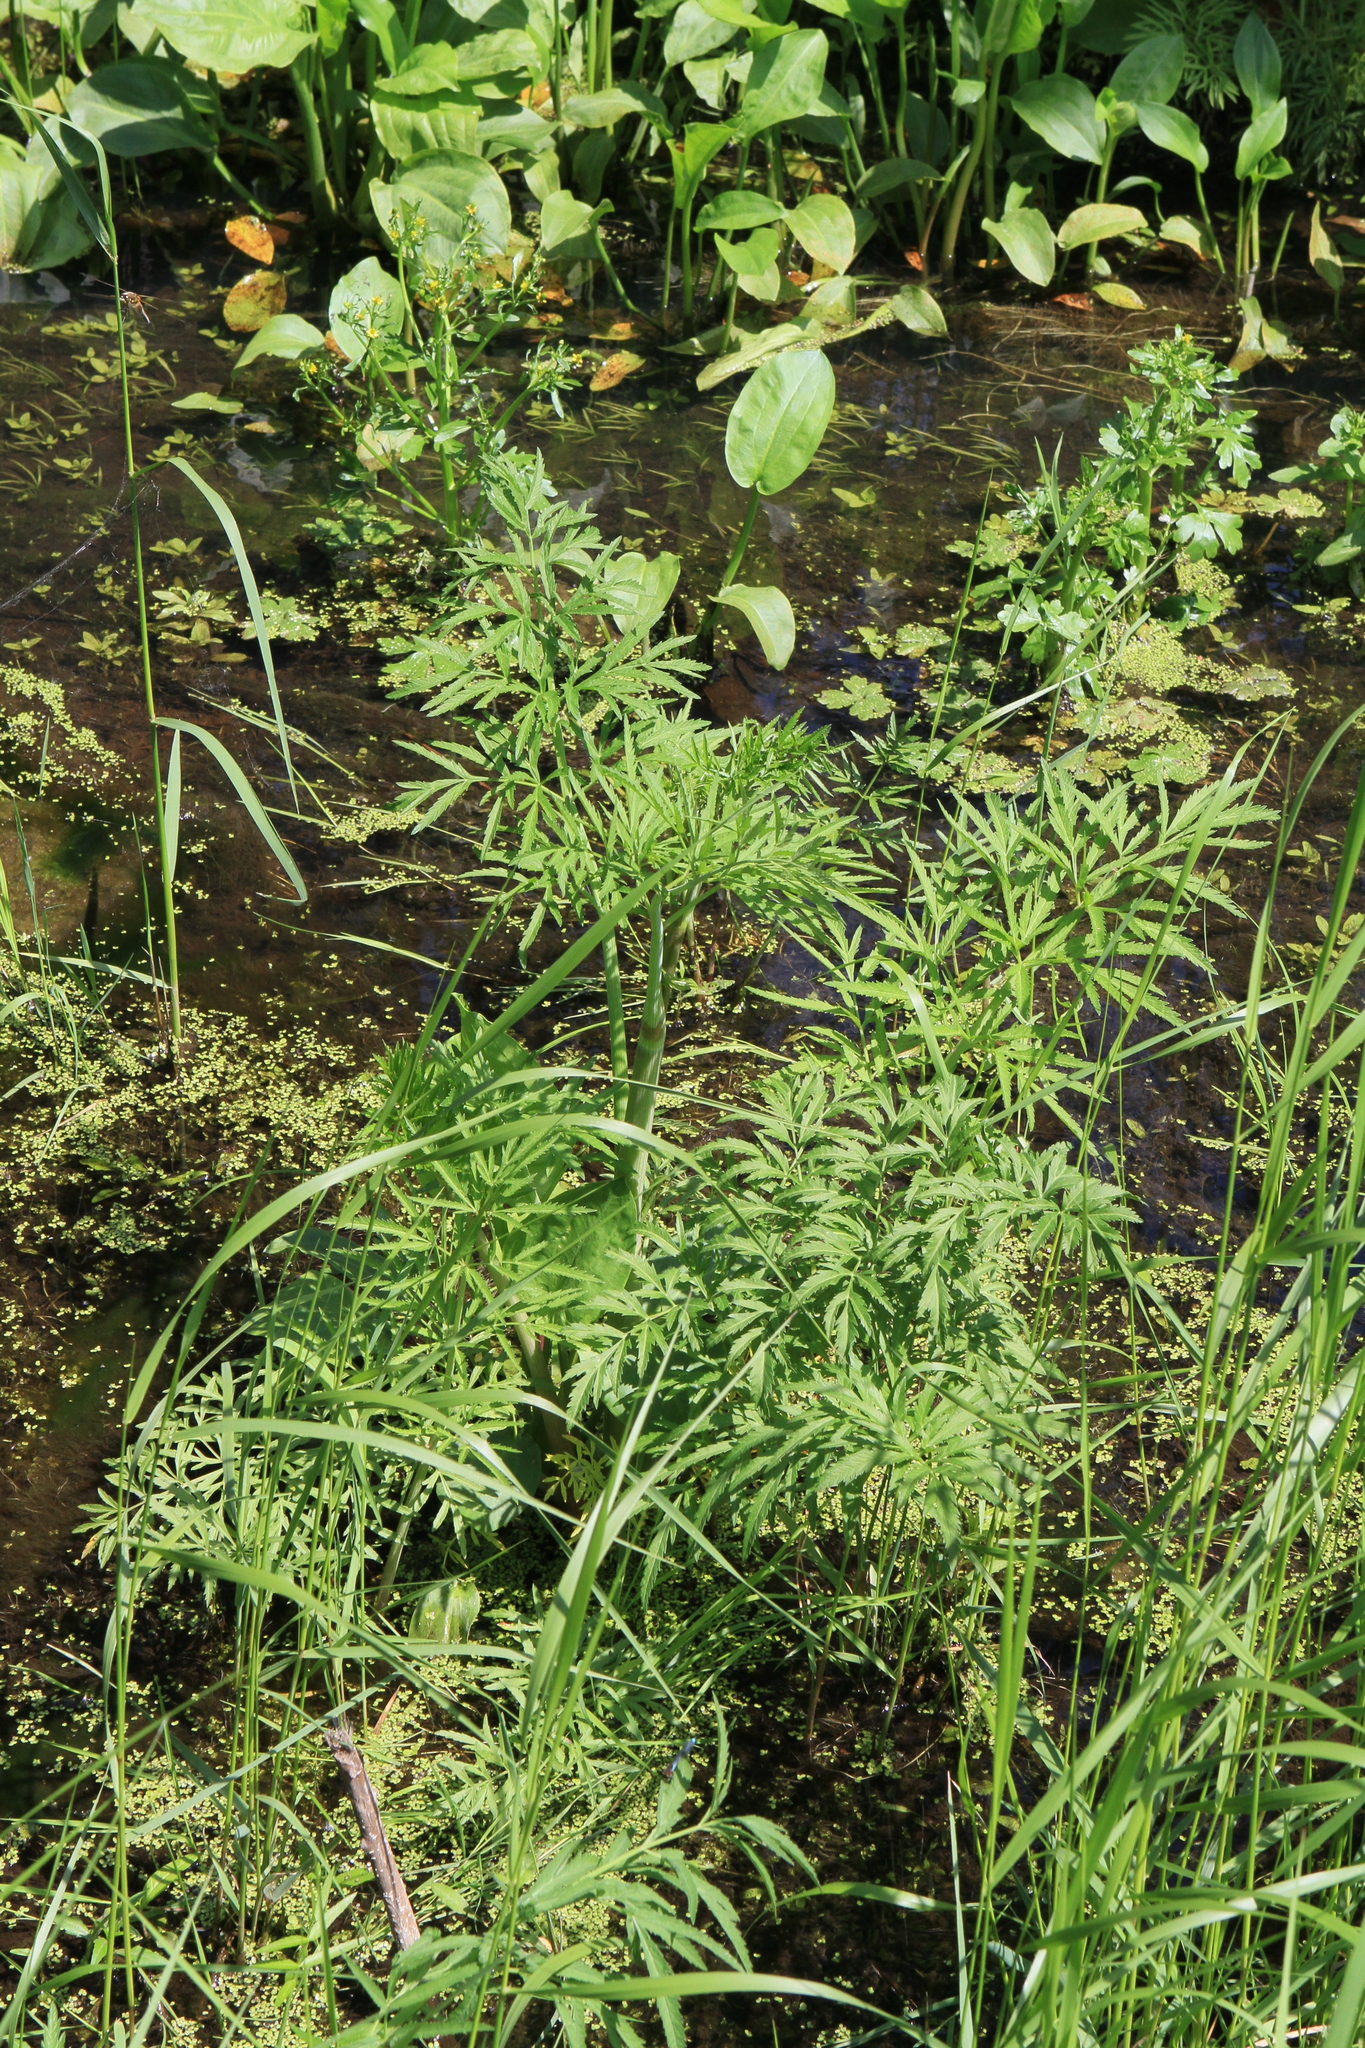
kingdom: Plantae
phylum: Tracheophyta
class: Magnoliopsida
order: Apiales
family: Apiaceae
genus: Cicuta
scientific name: Cicuta virosa
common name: Cowbane
